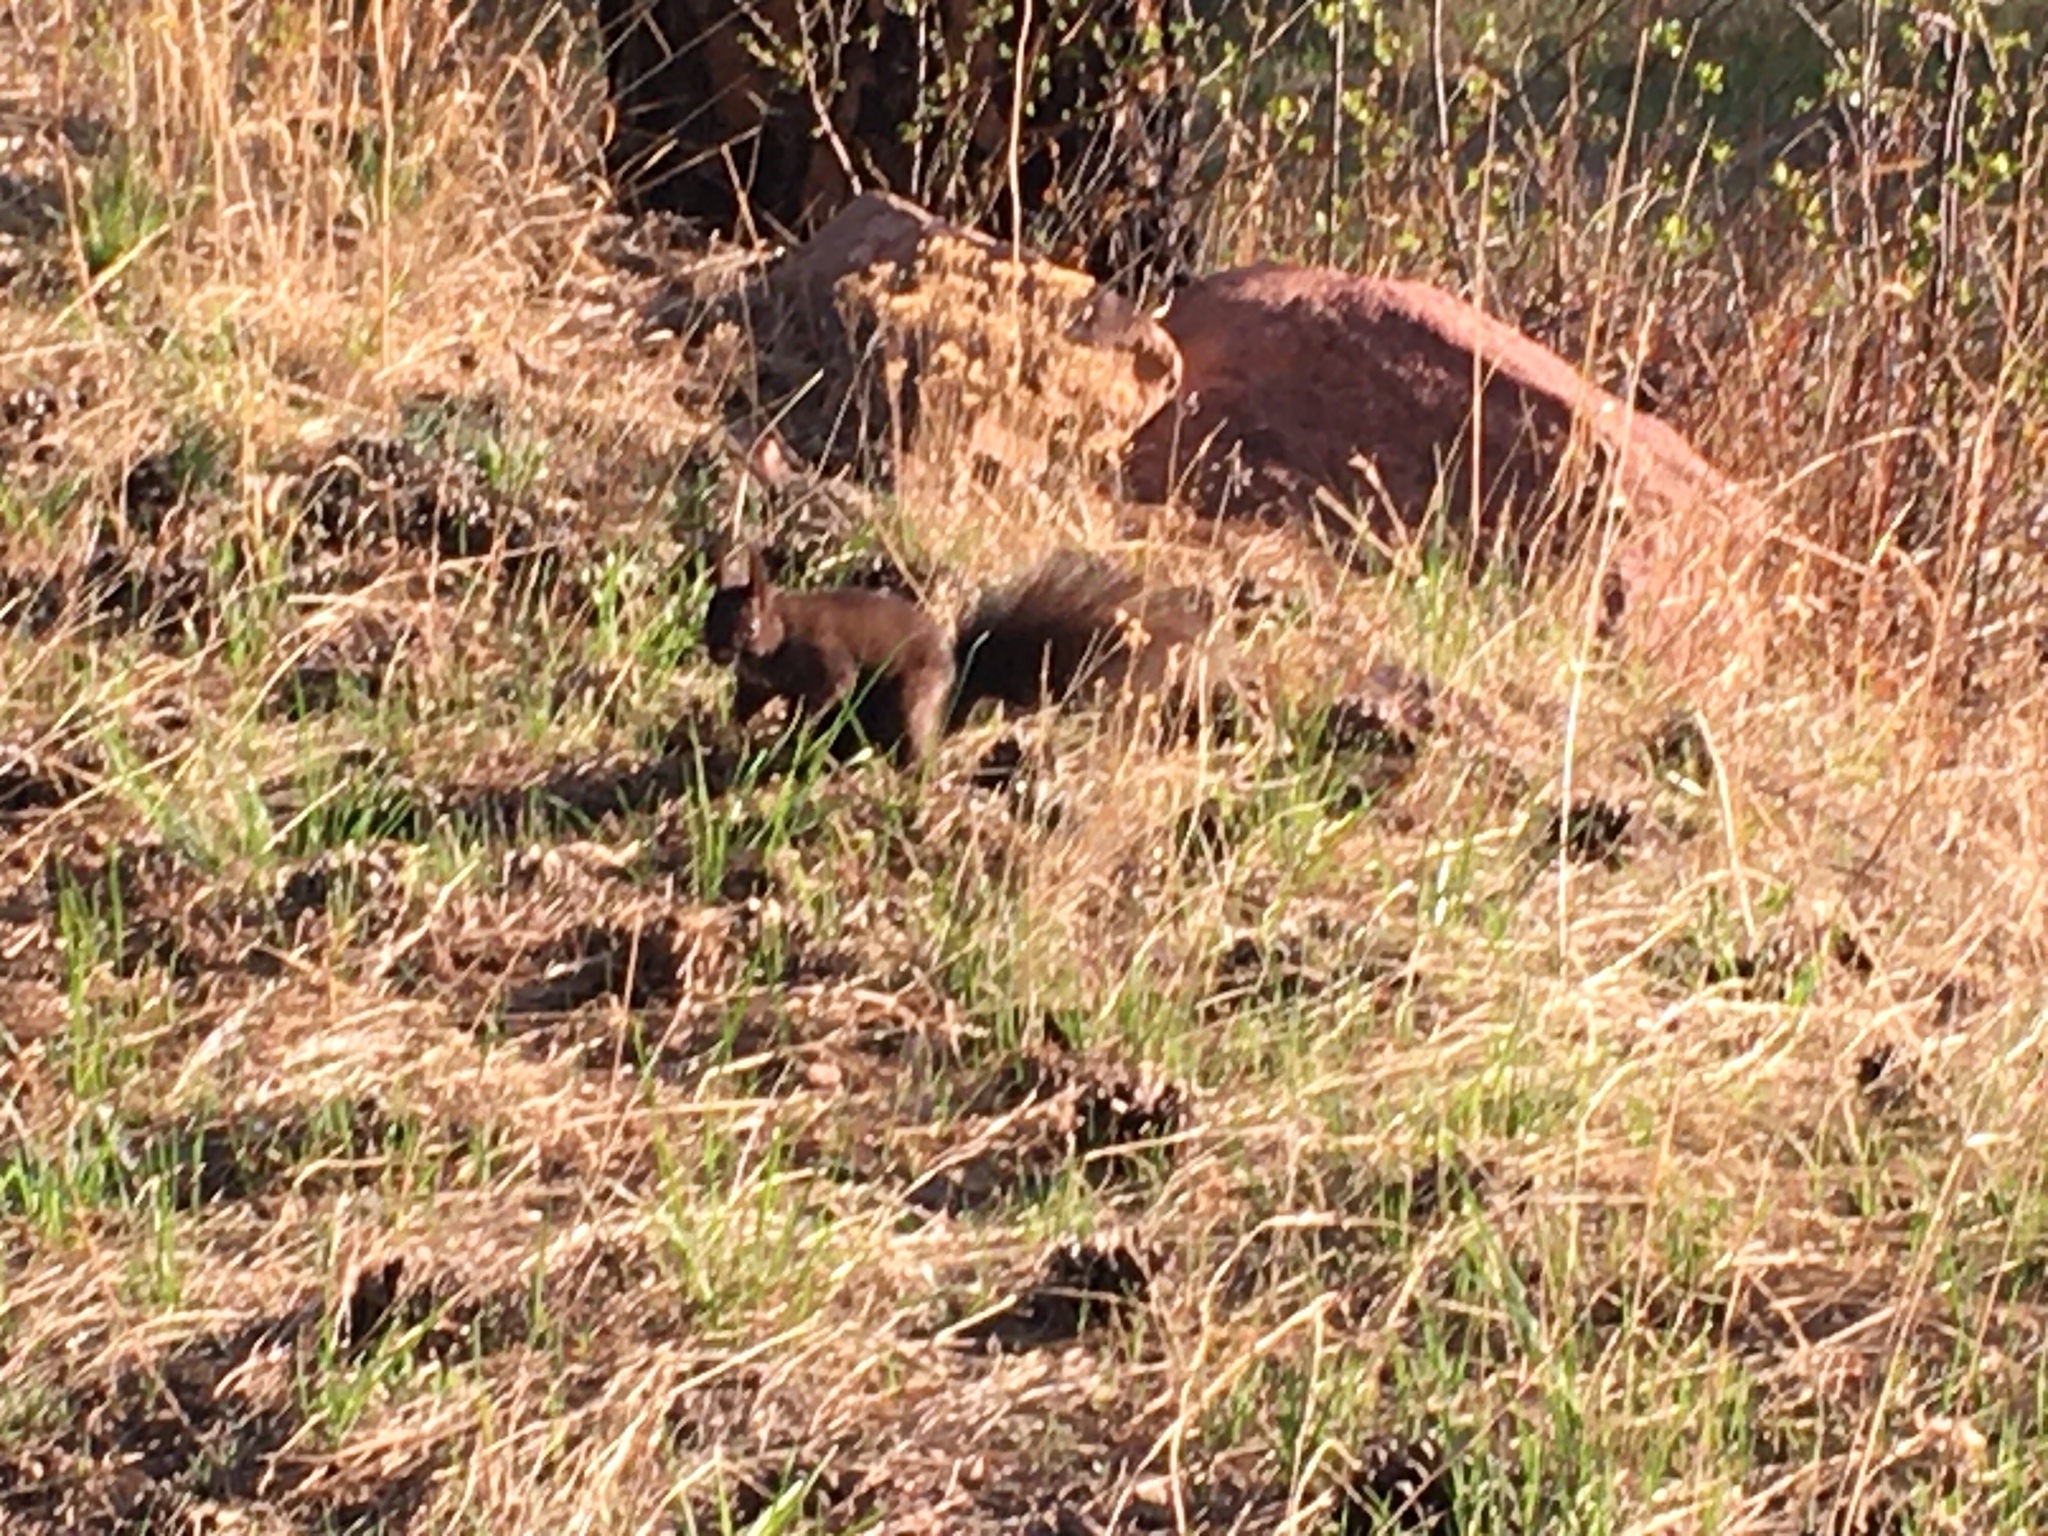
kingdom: Animalia
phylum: Chordata
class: Mammalia
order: Rodentia
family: Sciuridae
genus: Sciurus
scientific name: Sciurus aberti
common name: Abert's squirrel
